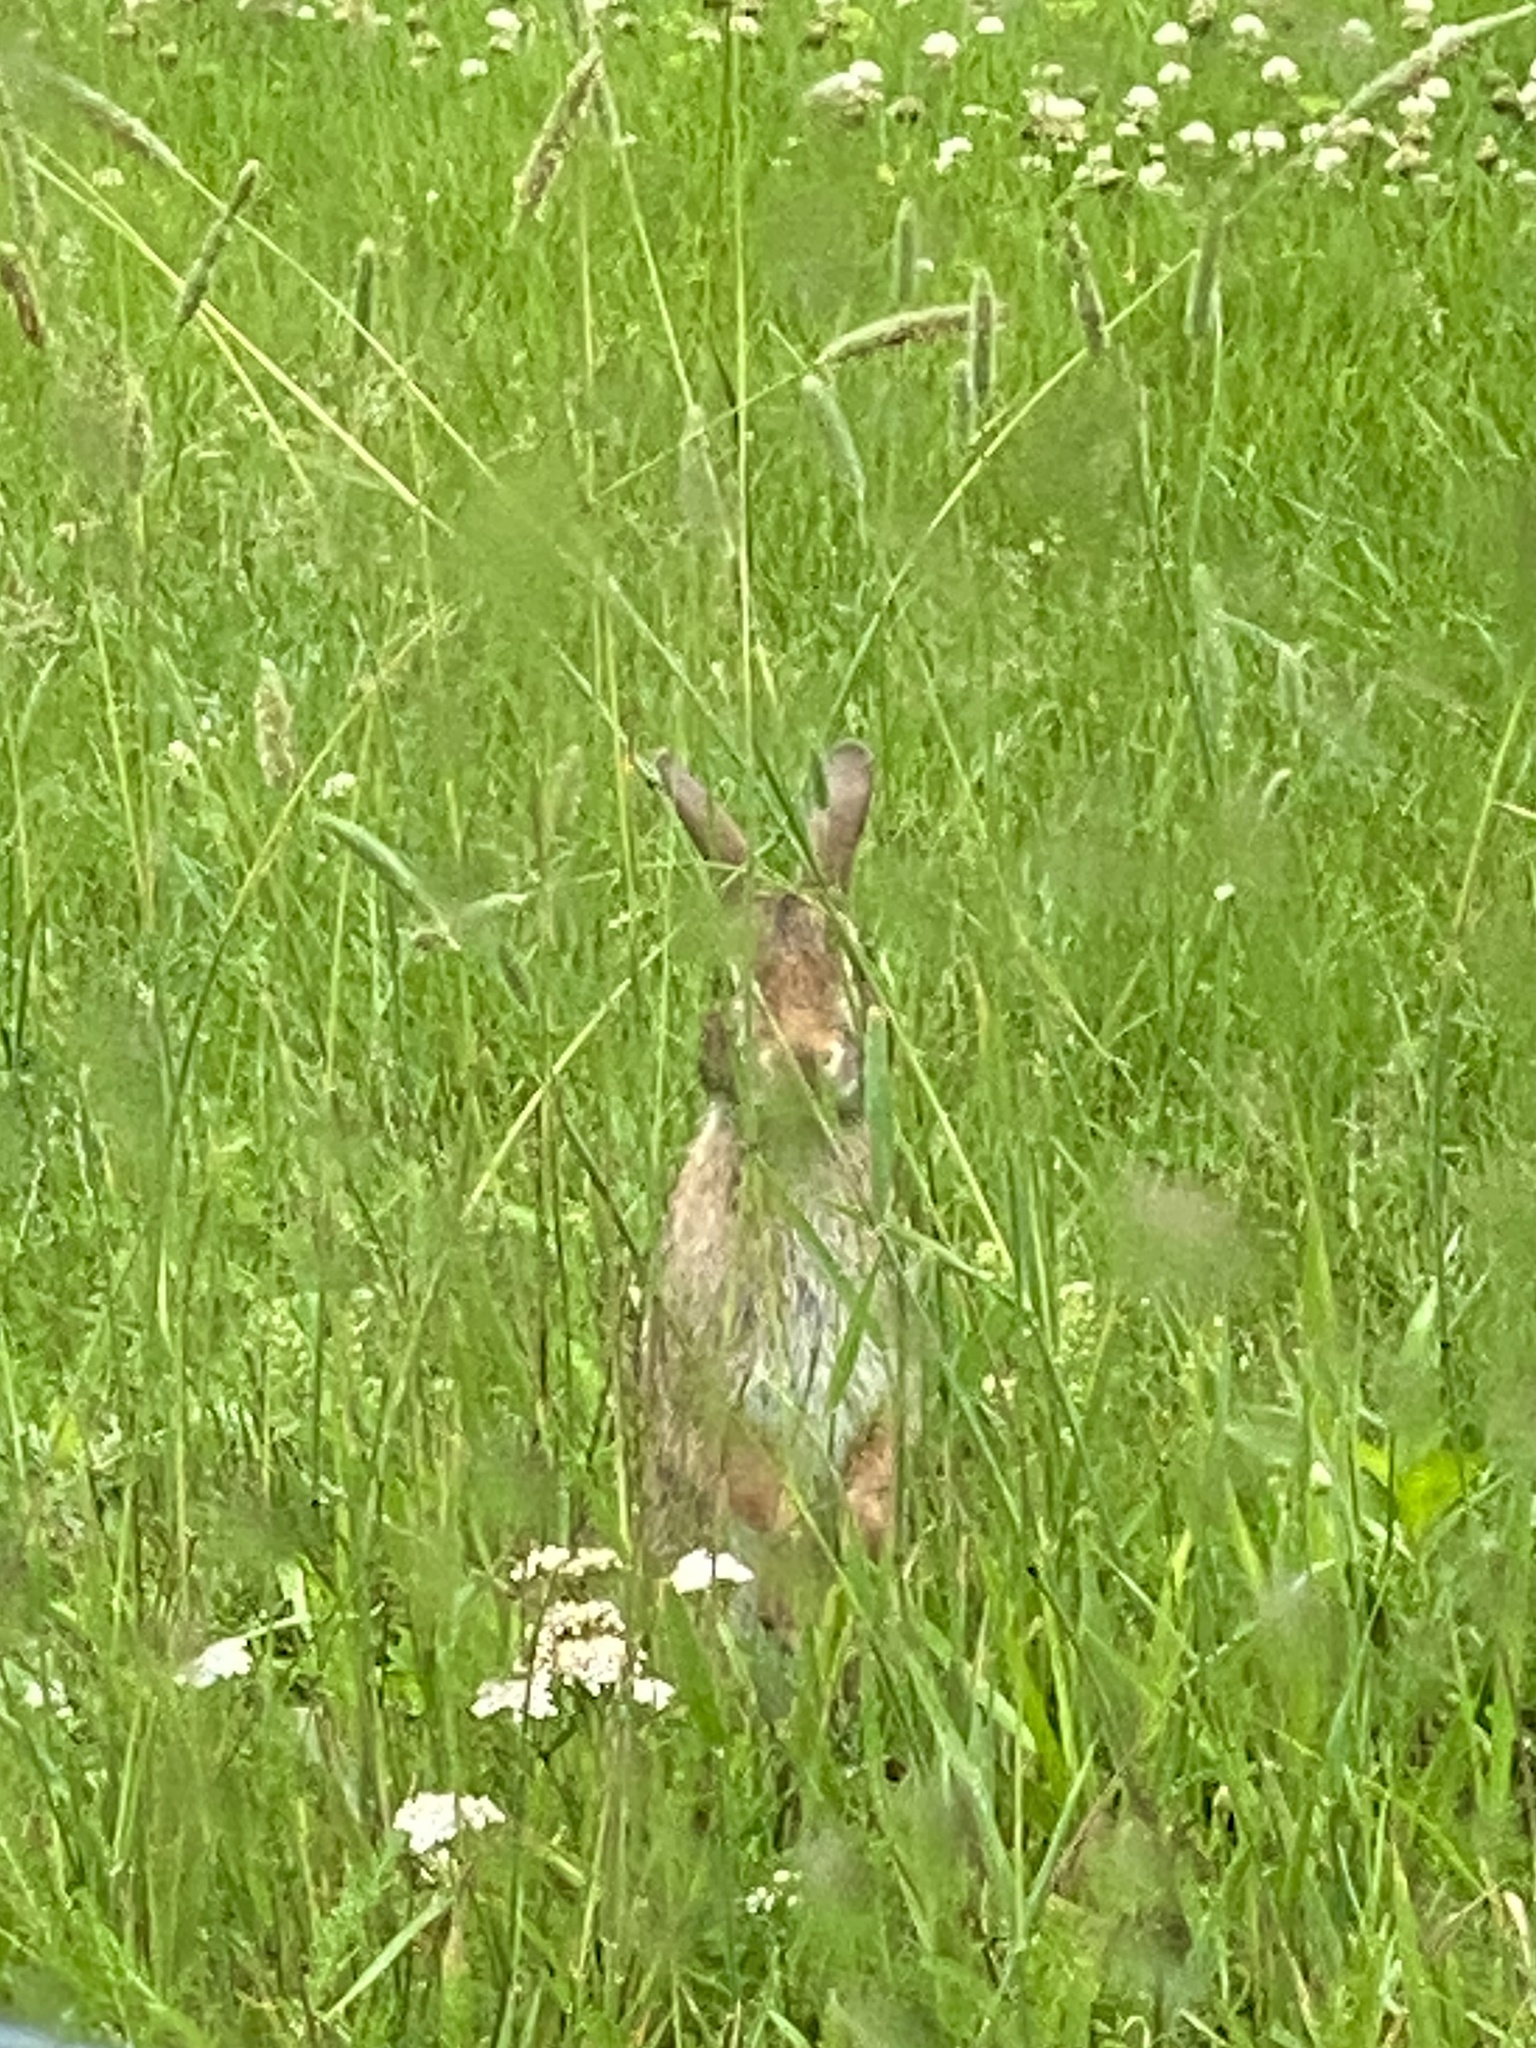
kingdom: Animalia
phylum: Chordata
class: Mammalia
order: Lagomorpha
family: Leporidae
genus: Sylvilagus
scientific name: Sylvilagus floridanus
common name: Eastern cottontail
